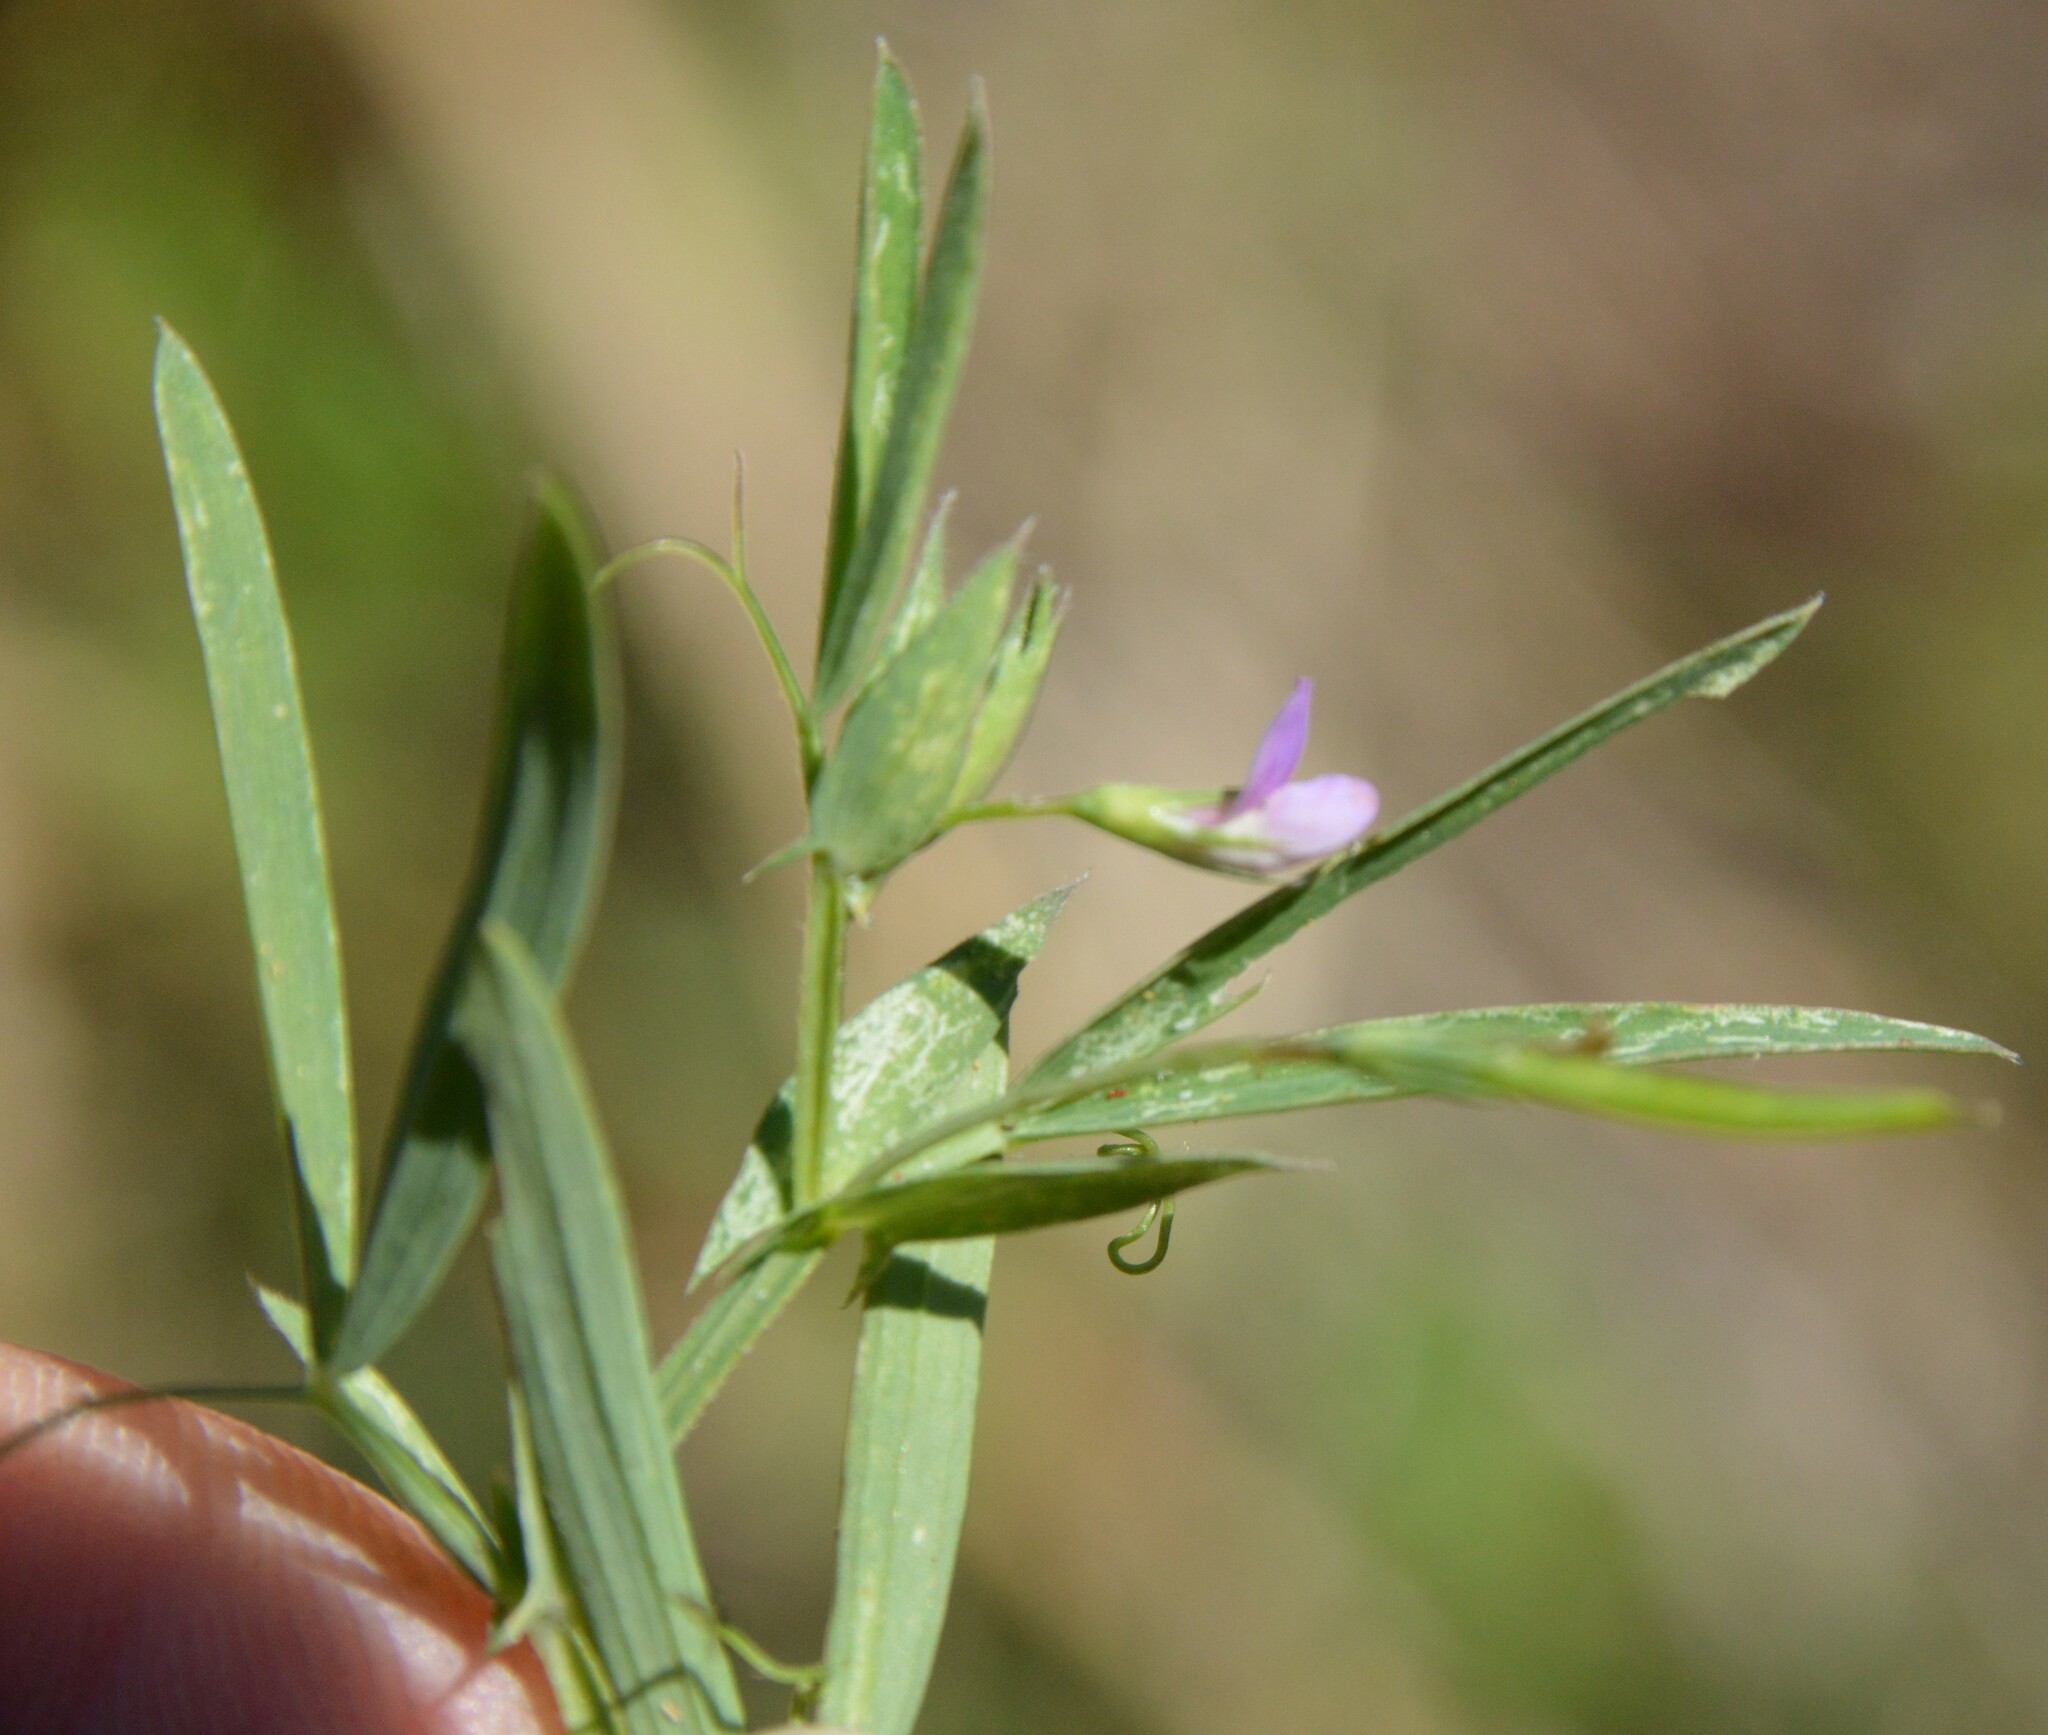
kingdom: Plantae
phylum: Tracheophyta
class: Magnoliopsida
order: Fabales
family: Fabaceae
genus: Lathyrus
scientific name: Lathyrus pusillus
